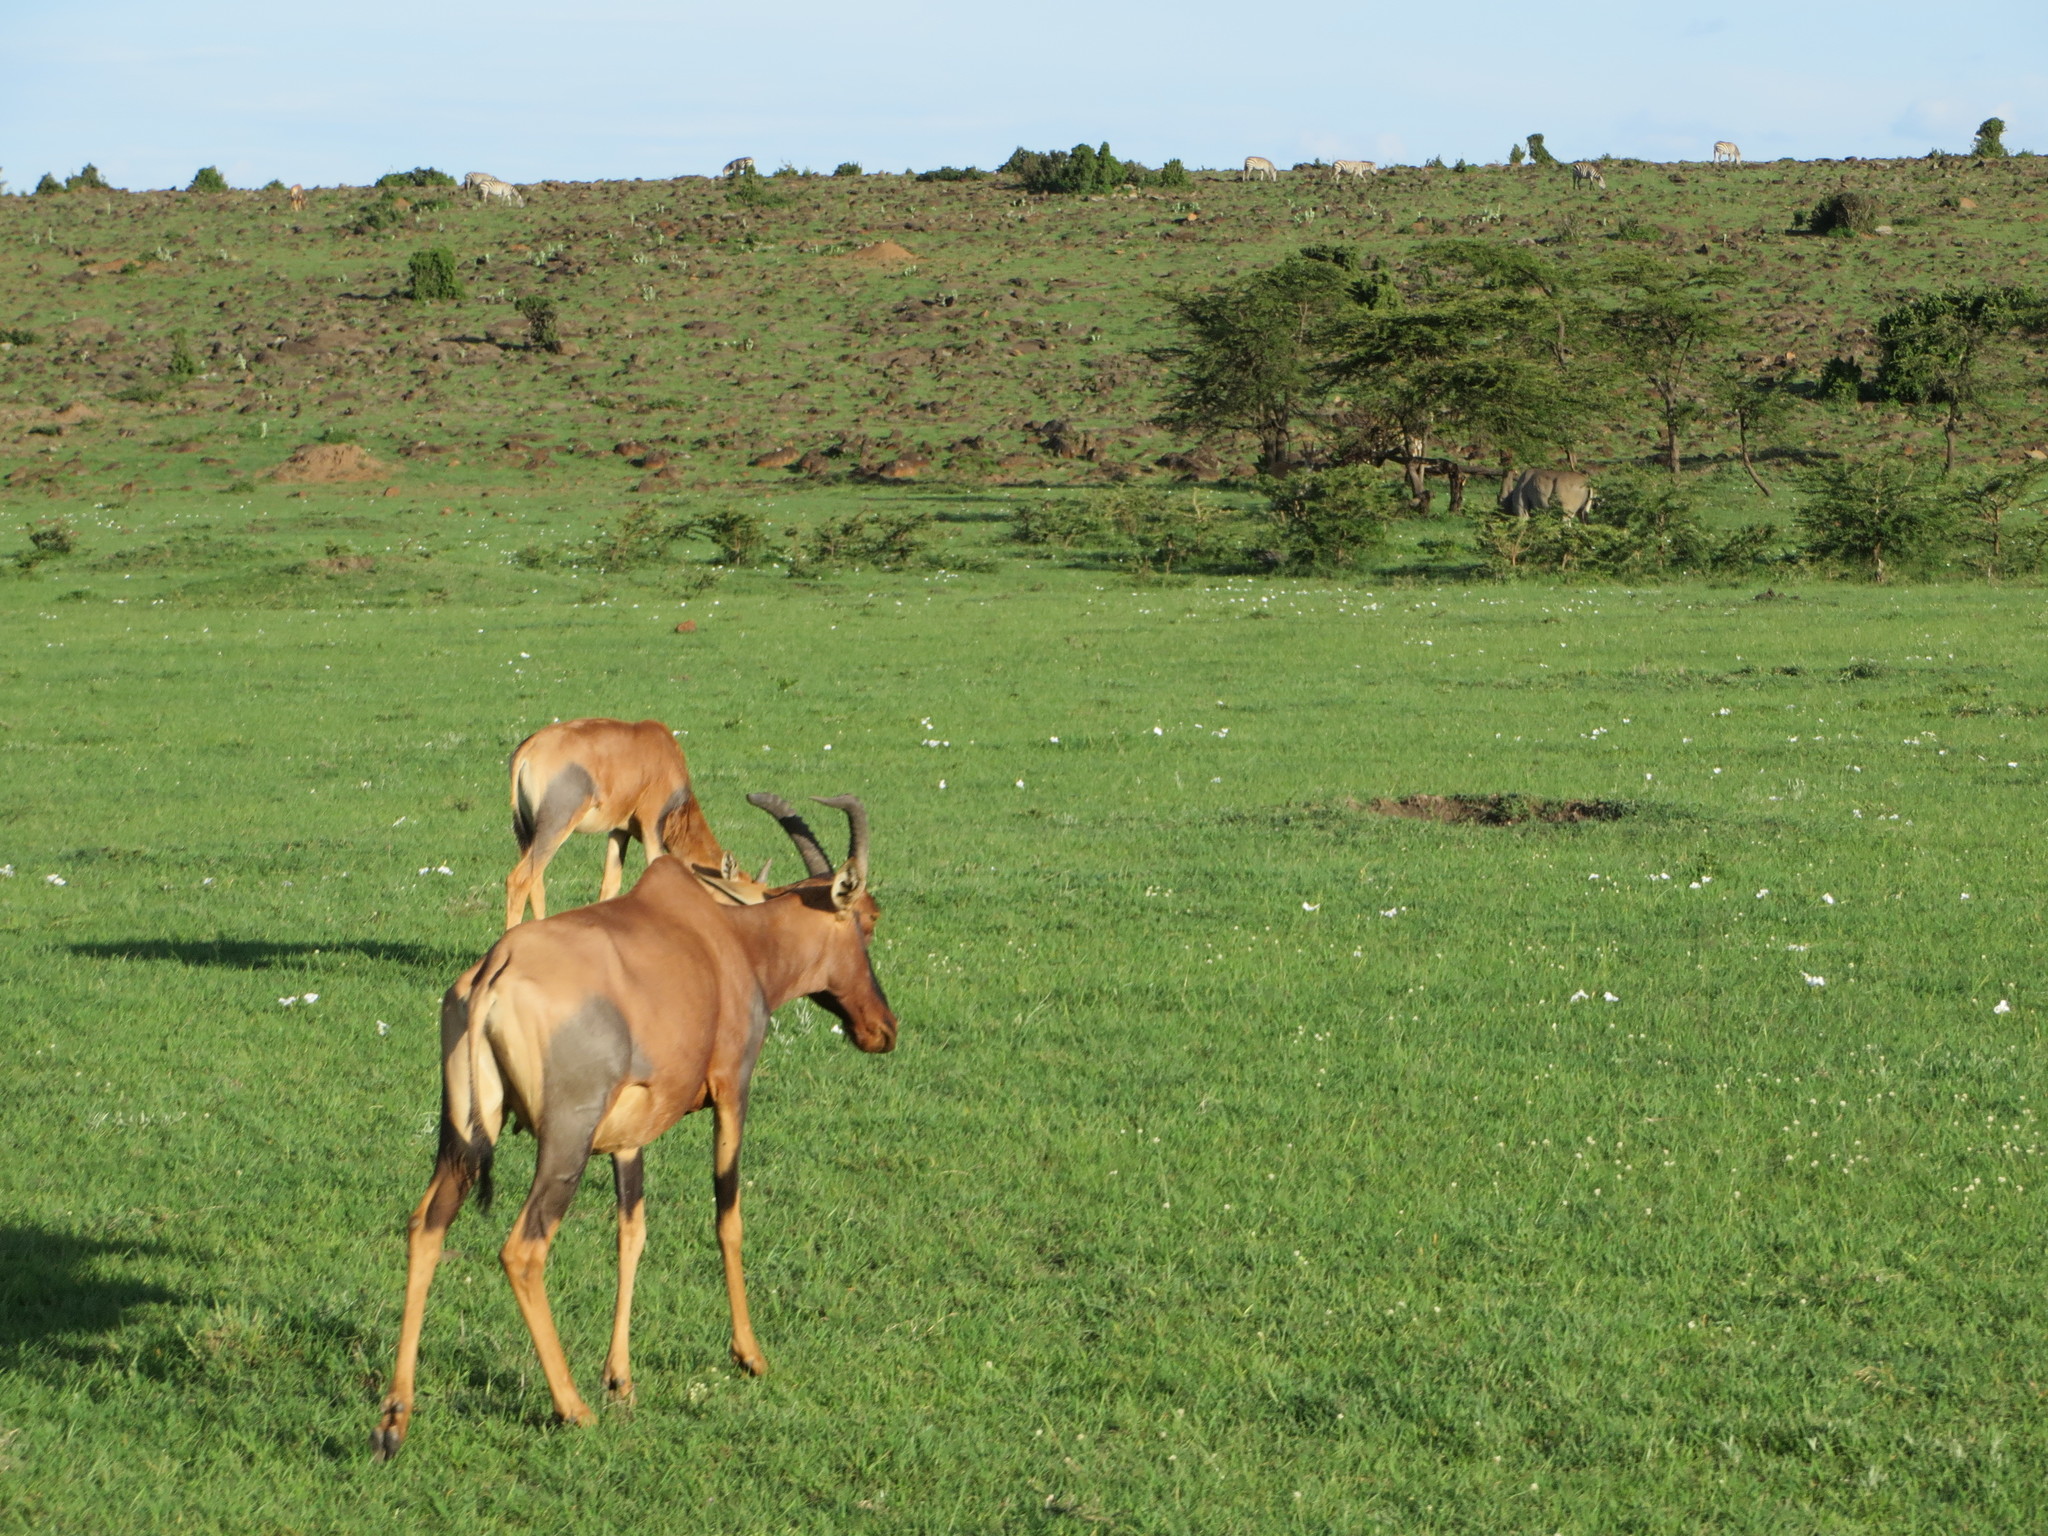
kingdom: Animalia
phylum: Chordata
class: Mammalia
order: Artiodactyla
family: Bovidae
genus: Damaliscus
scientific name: Damaliscus korrigum
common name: Topi
